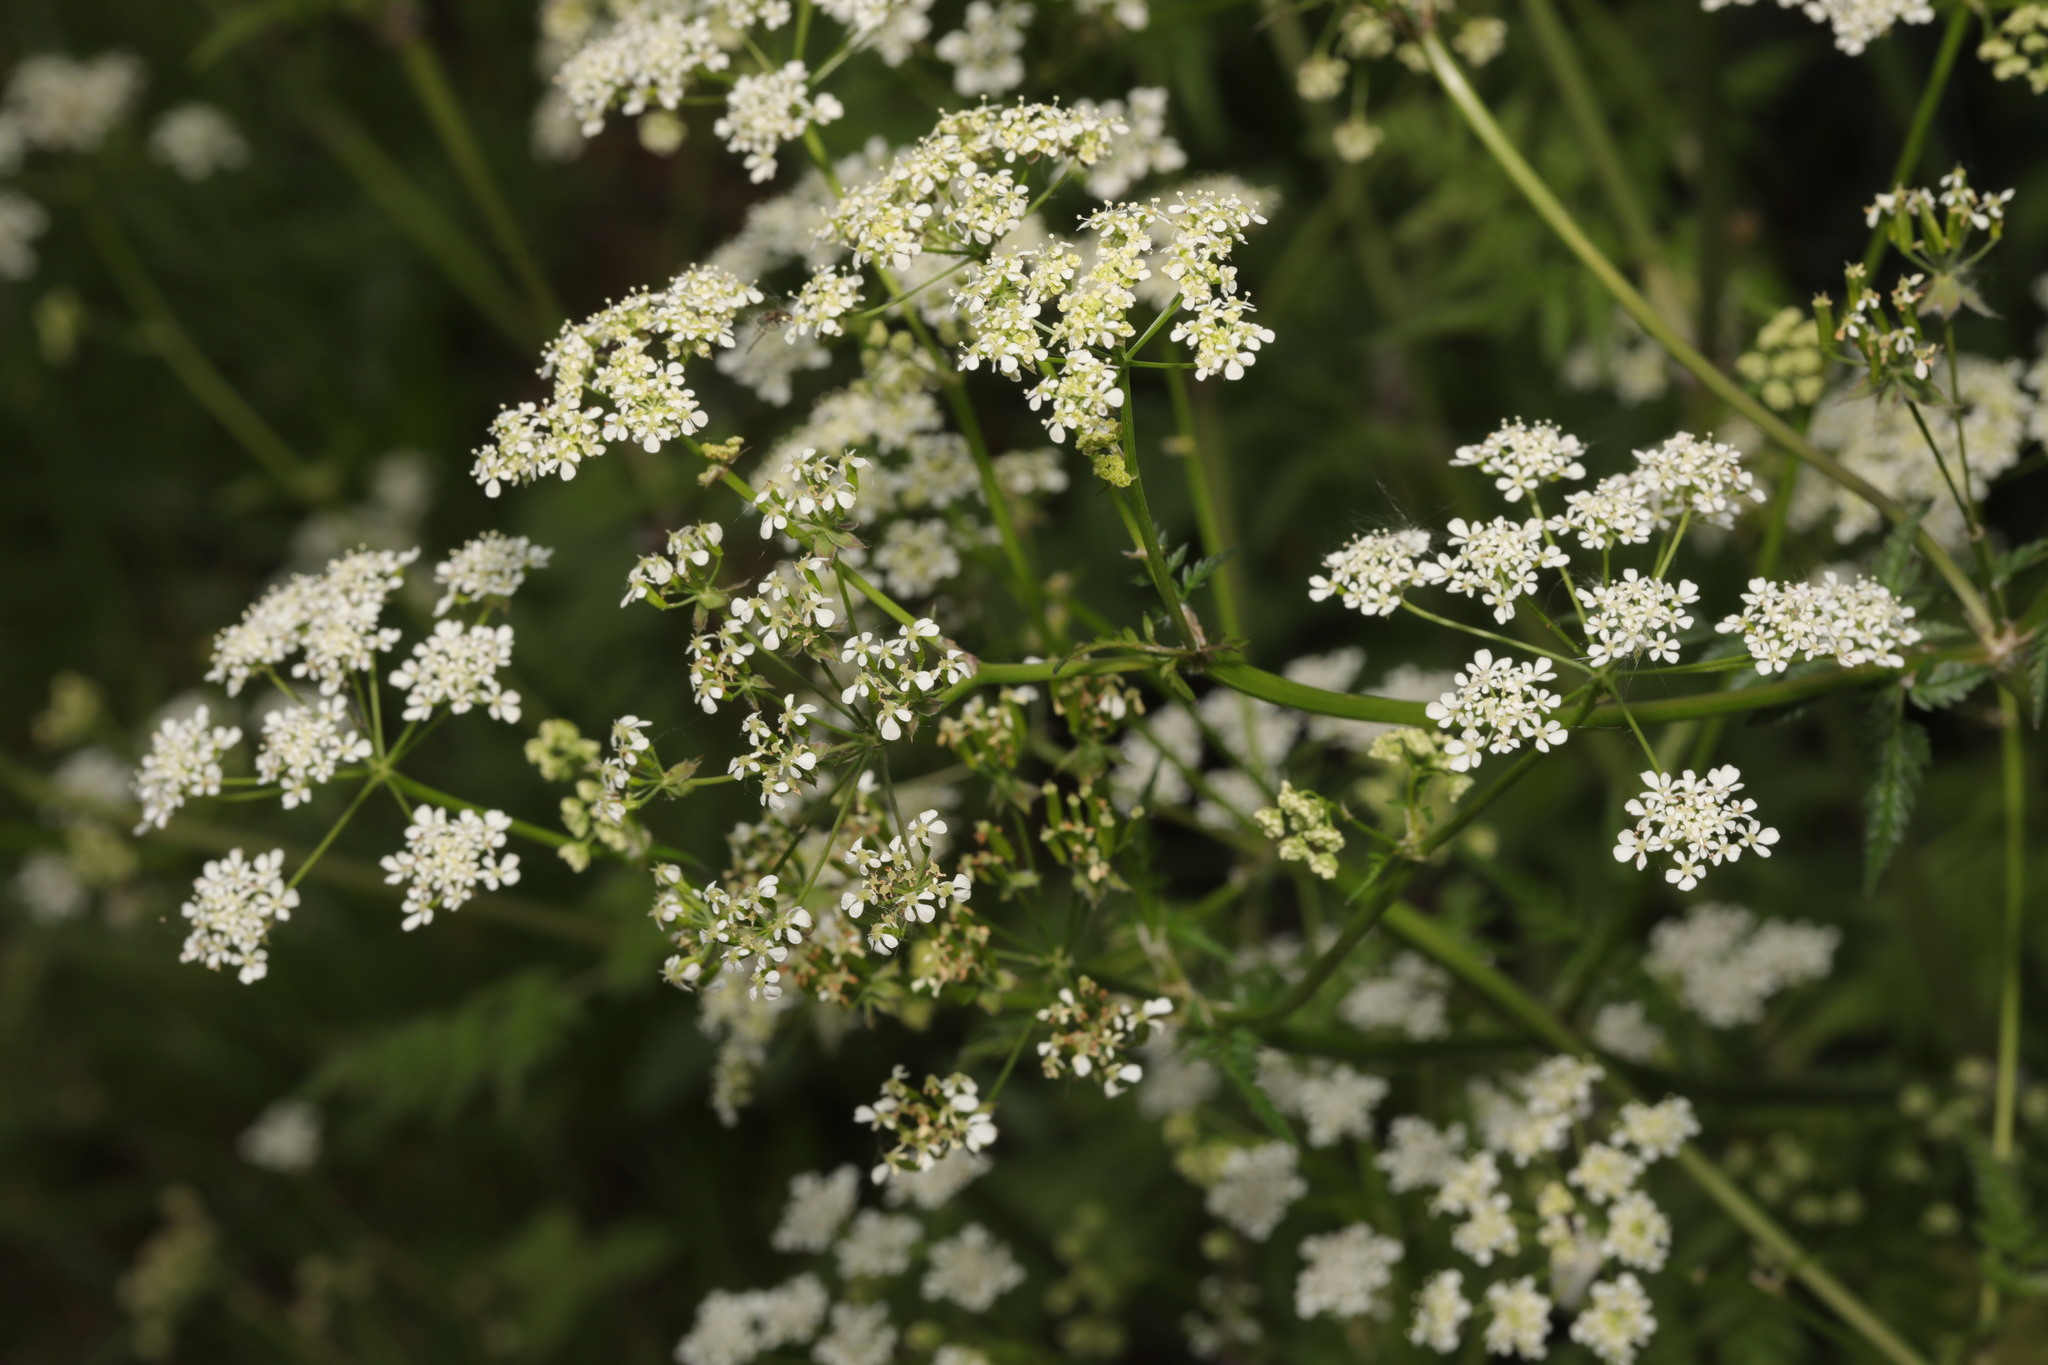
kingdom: Plantae
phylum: Tracheophyta
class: Magnoliopsida
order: Apiales
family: Apiaceae
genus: Anthriscus
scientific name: Anthriscus sylvestris
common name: Cow parsley
